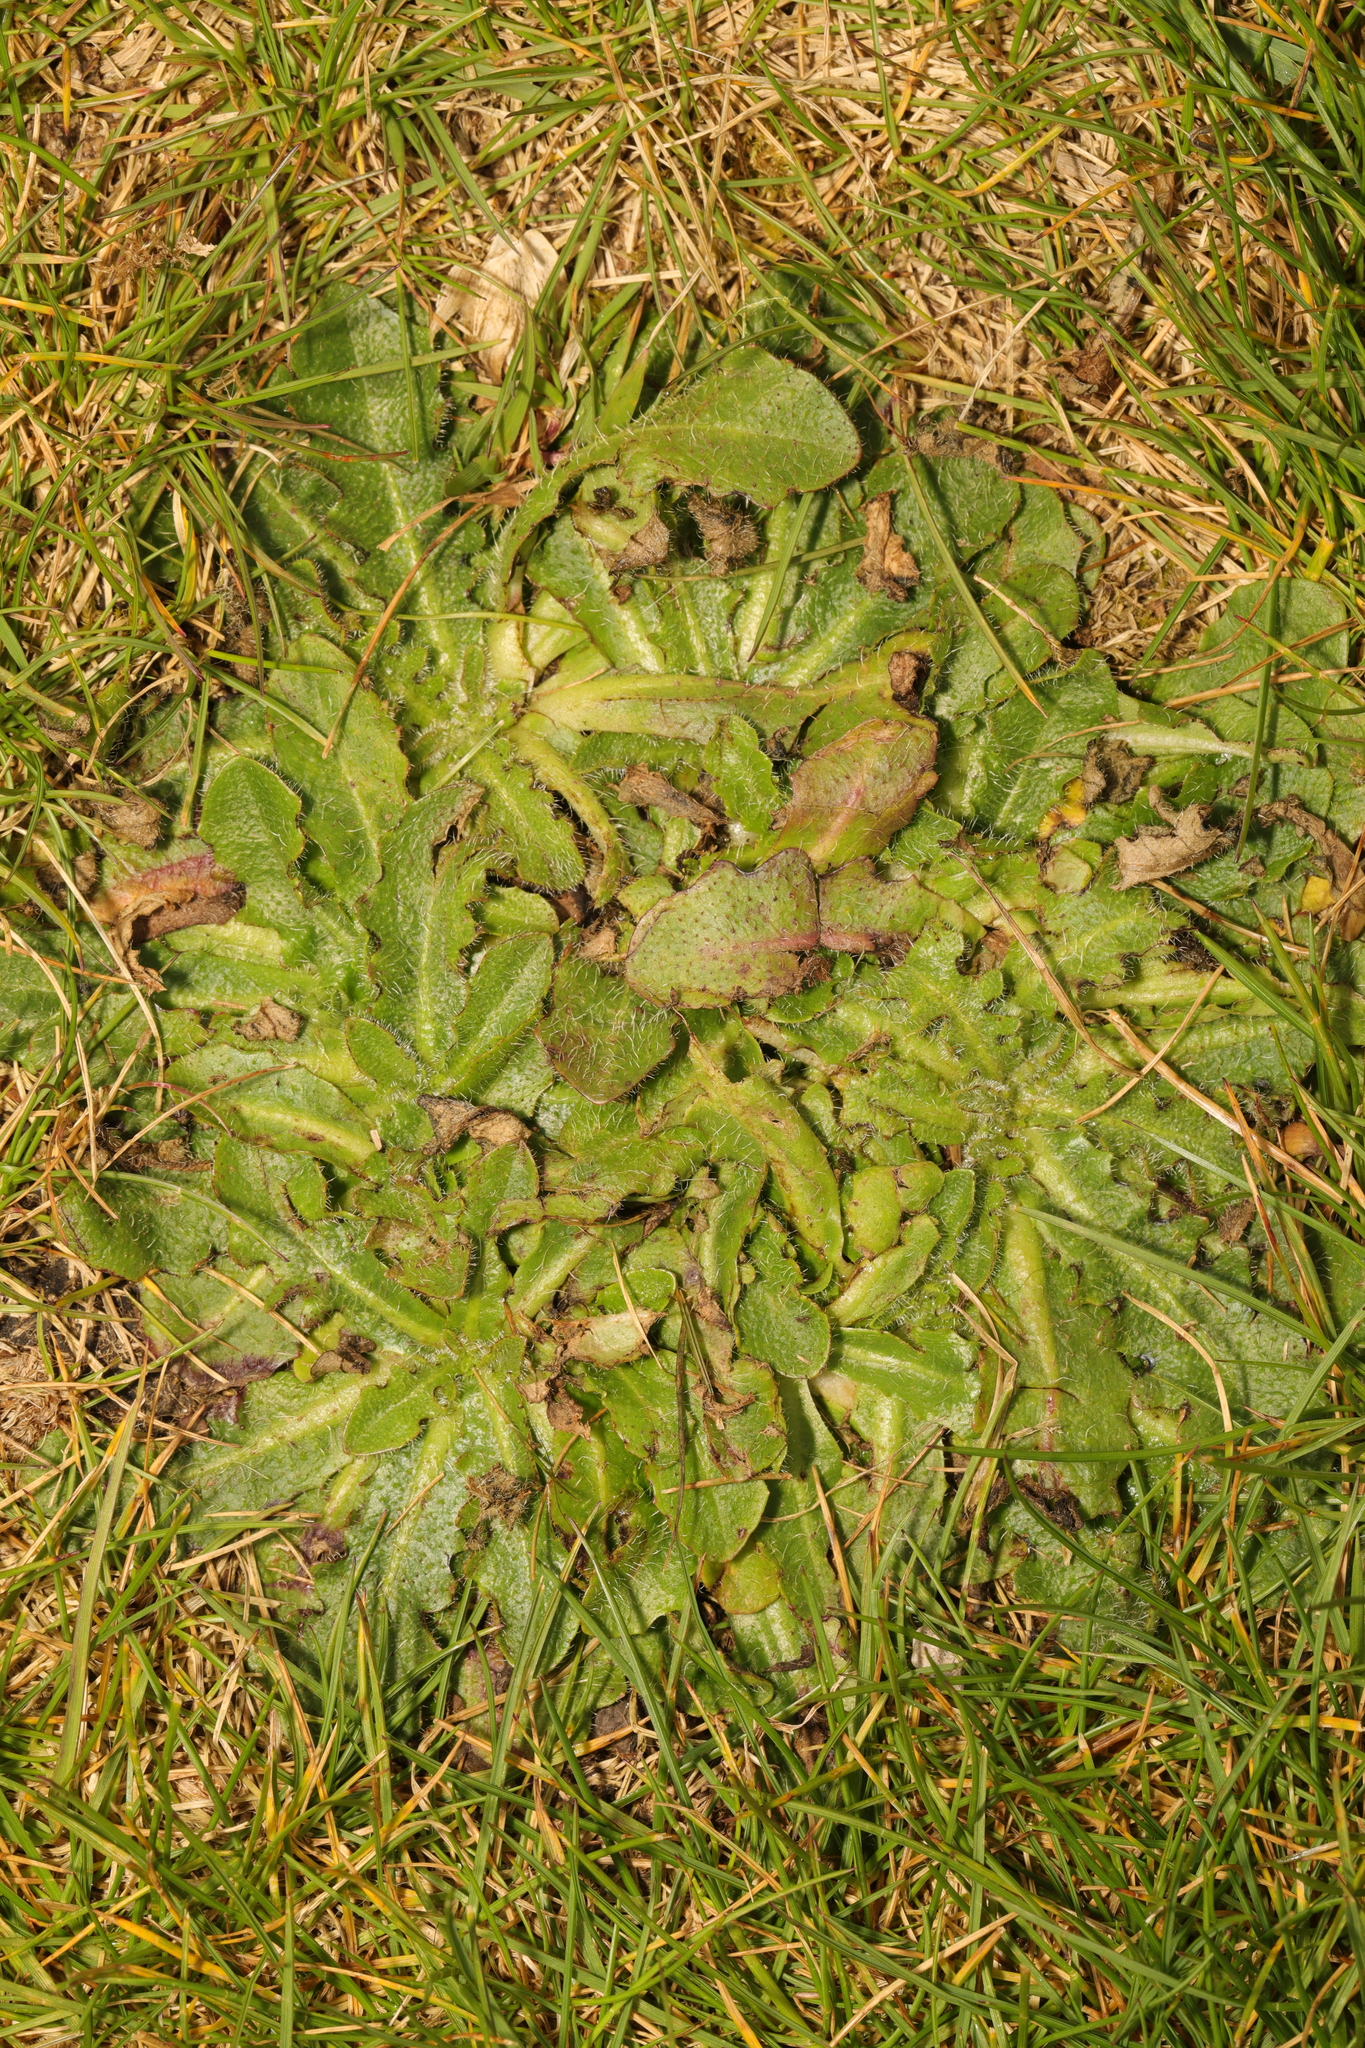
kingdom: Plantae
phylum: Tracheophyta
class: Magnoliopsida
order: Asterales
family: Asteraceae
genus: Hypochaeris
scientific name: Hypochaeris radicata
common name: Flatweed
